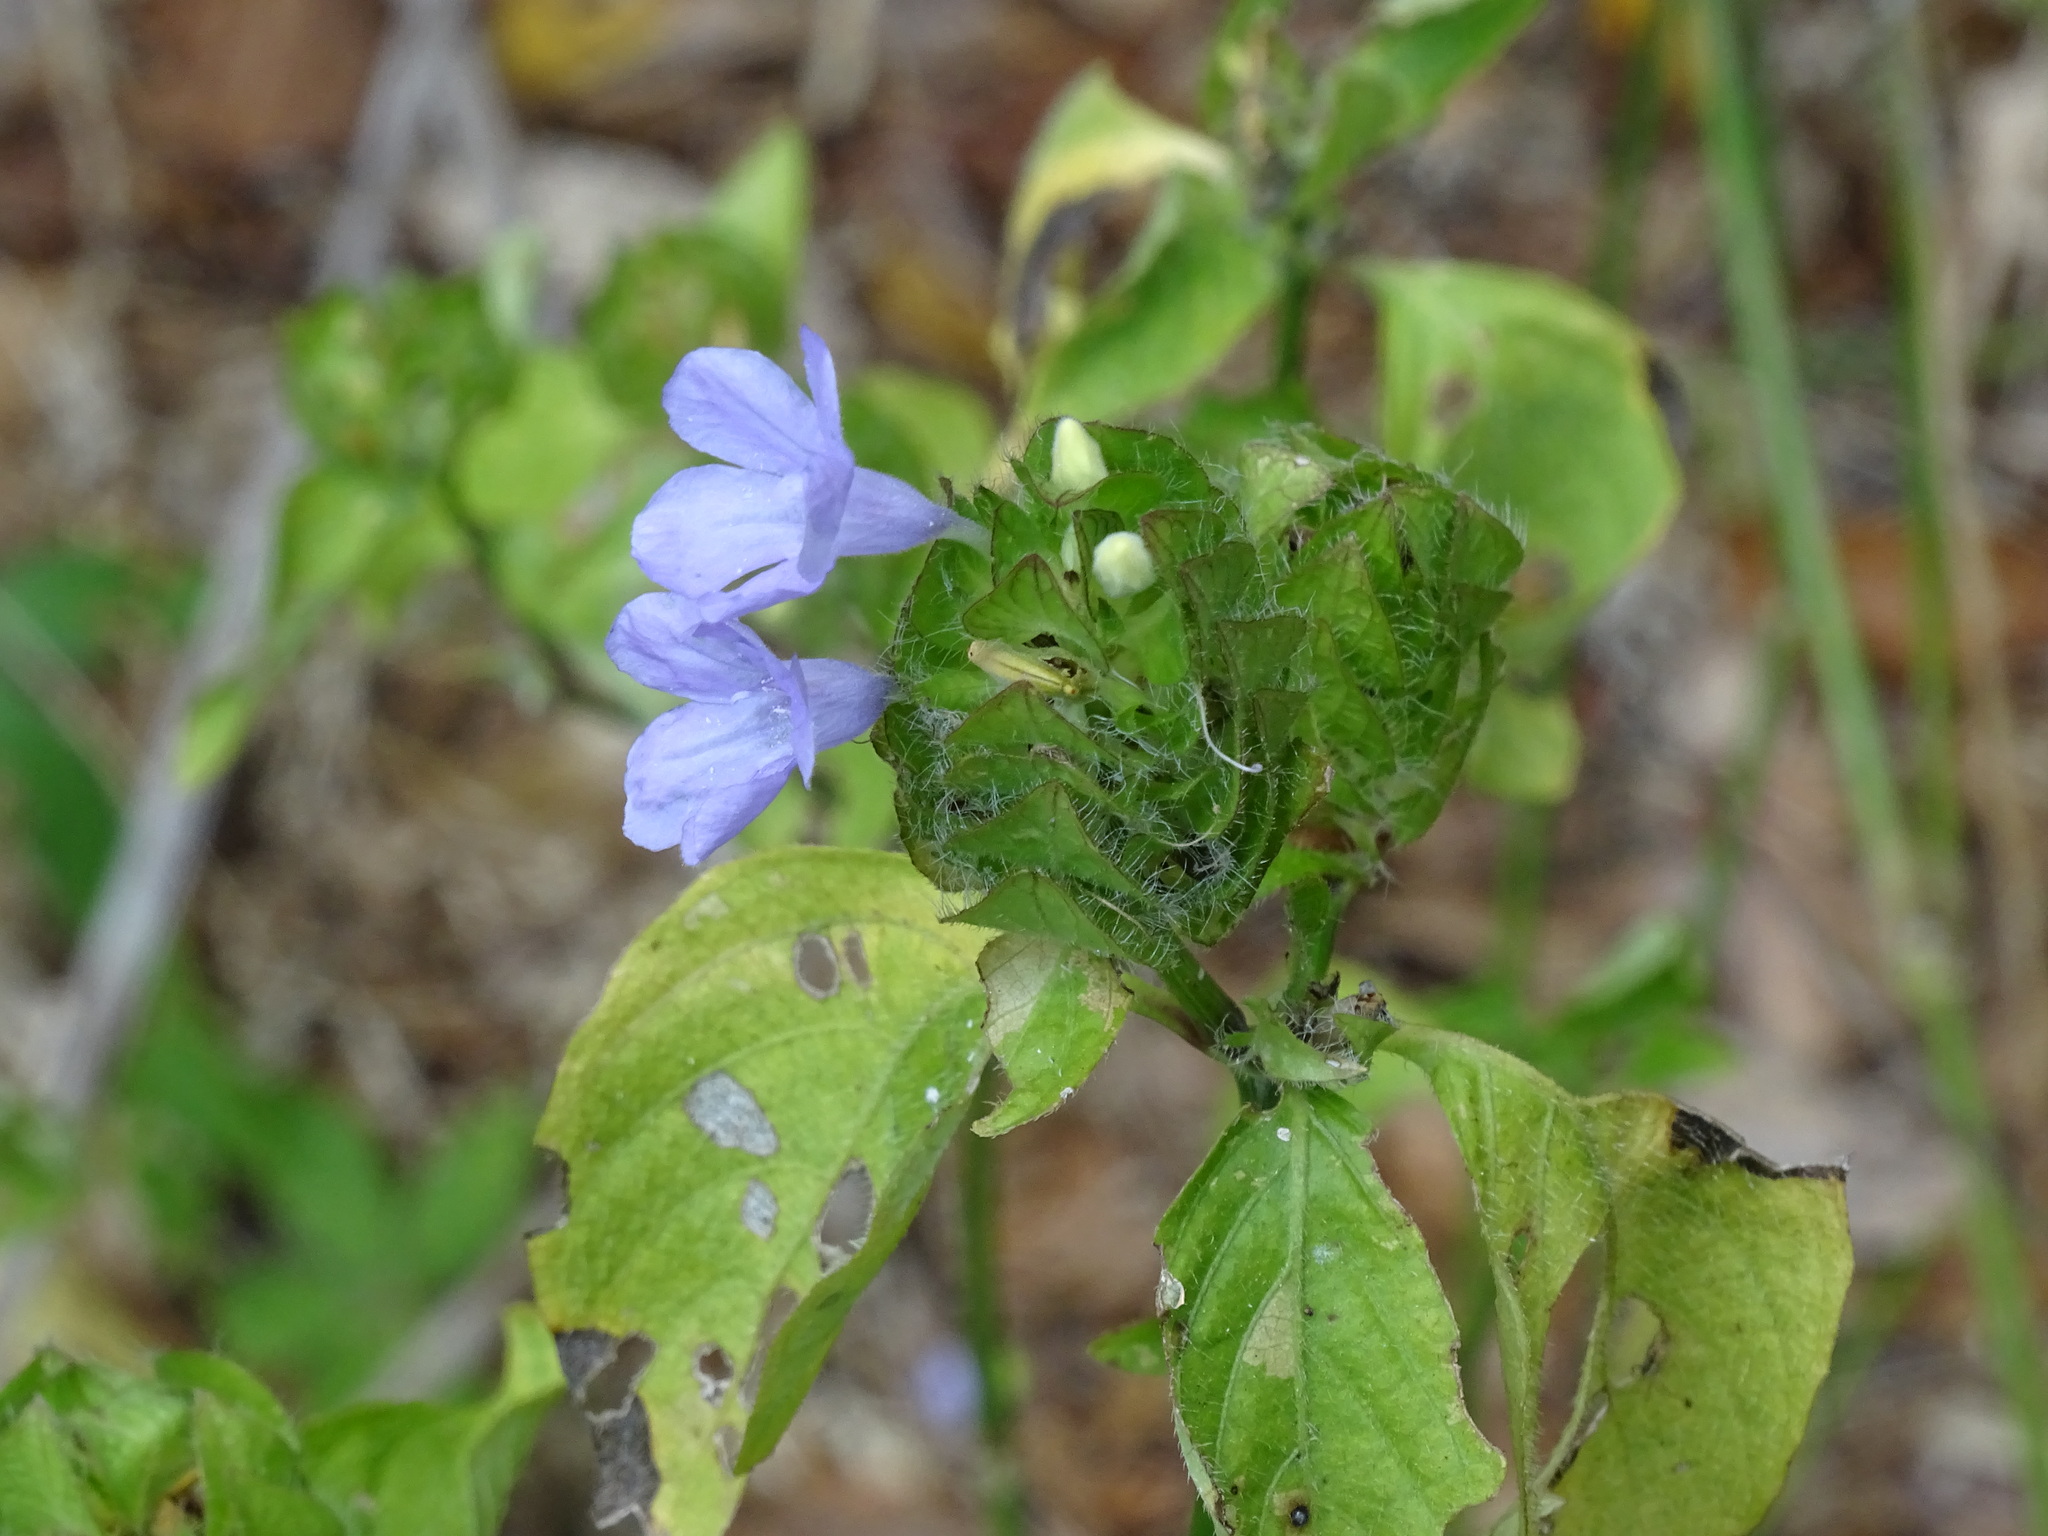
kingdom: Plantae
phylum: Tracheophyta
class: Magnoliopsida
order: Lamiales
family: Acanthaceae
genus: Ruellia
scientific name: Ruellia blechum
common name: Browne's blechum
